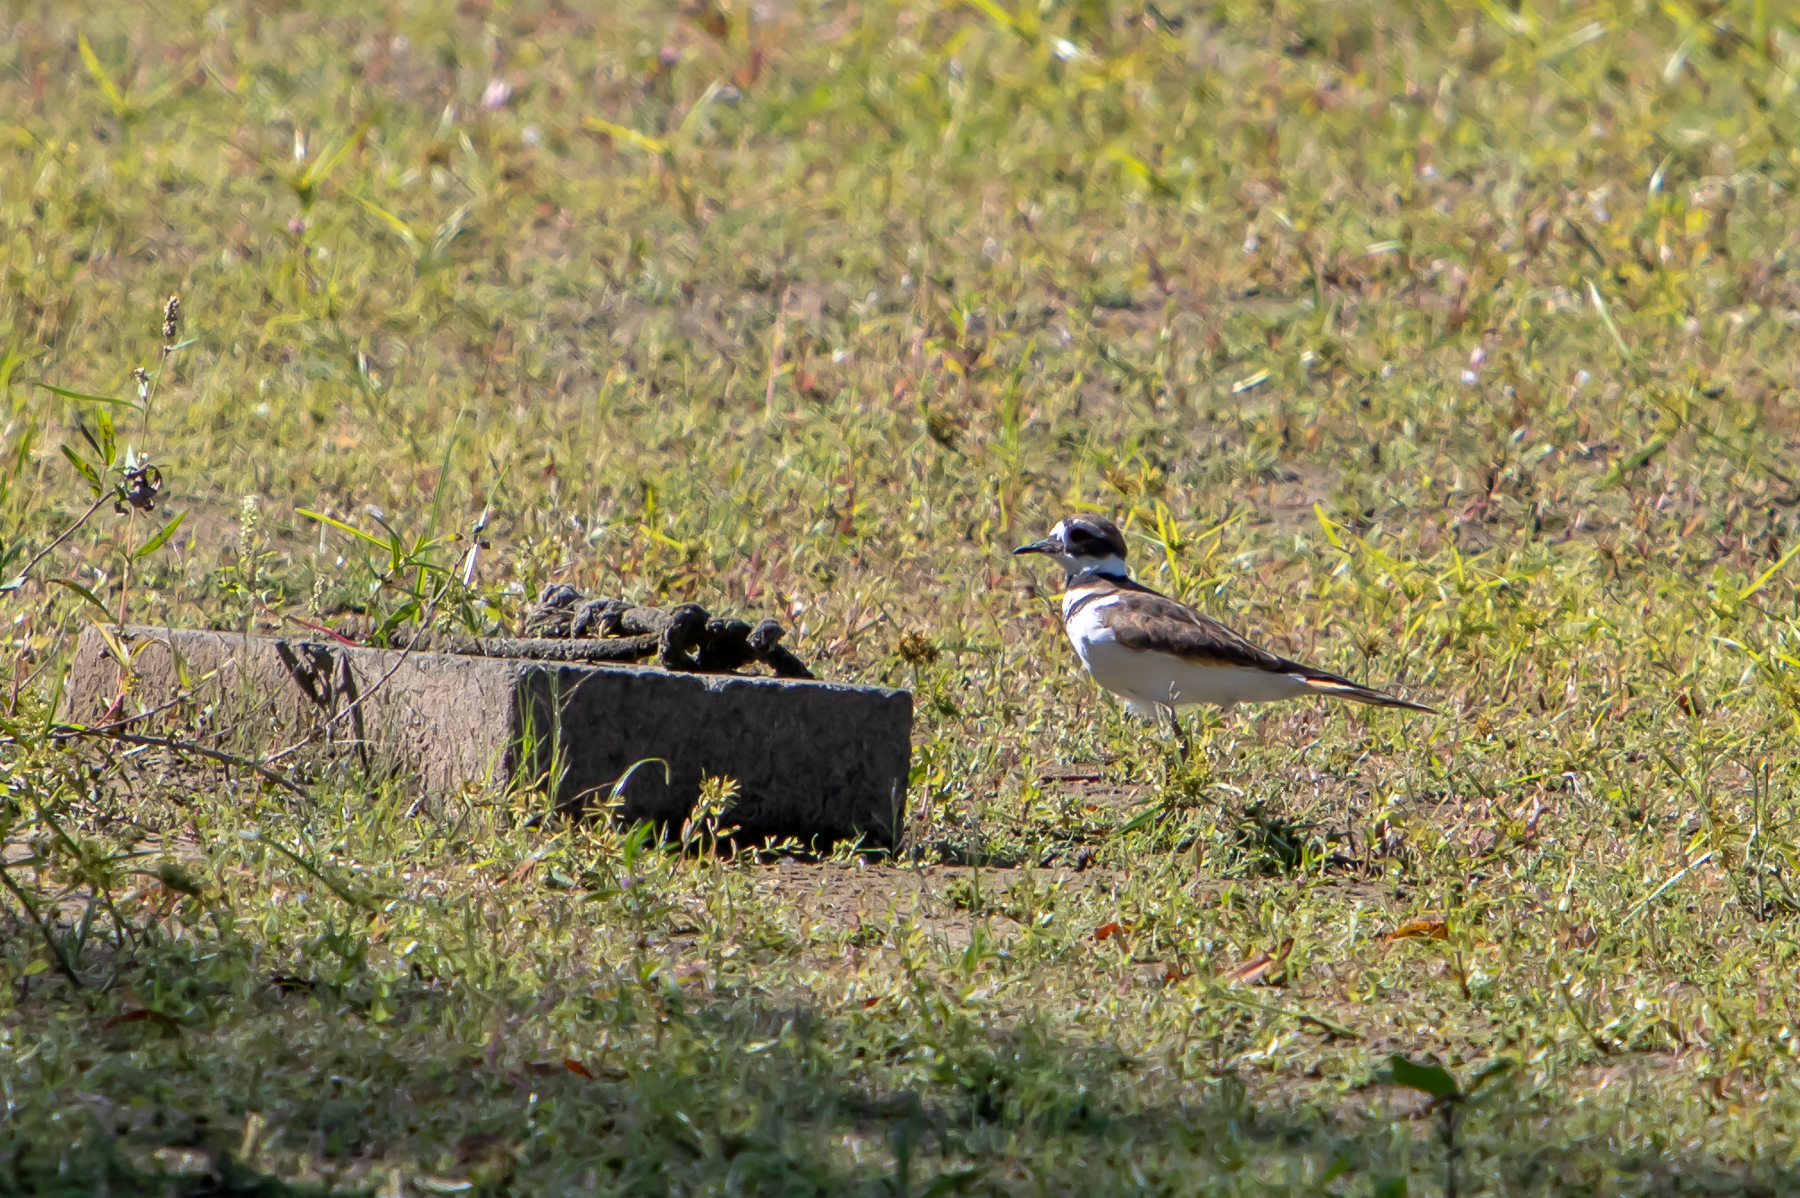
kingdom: Animalia
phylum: Chordata
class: Aves
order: Charadriiformes
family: Charadriidae
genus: Charadrius
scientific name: Charadrius vociferus
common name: Killdeer
